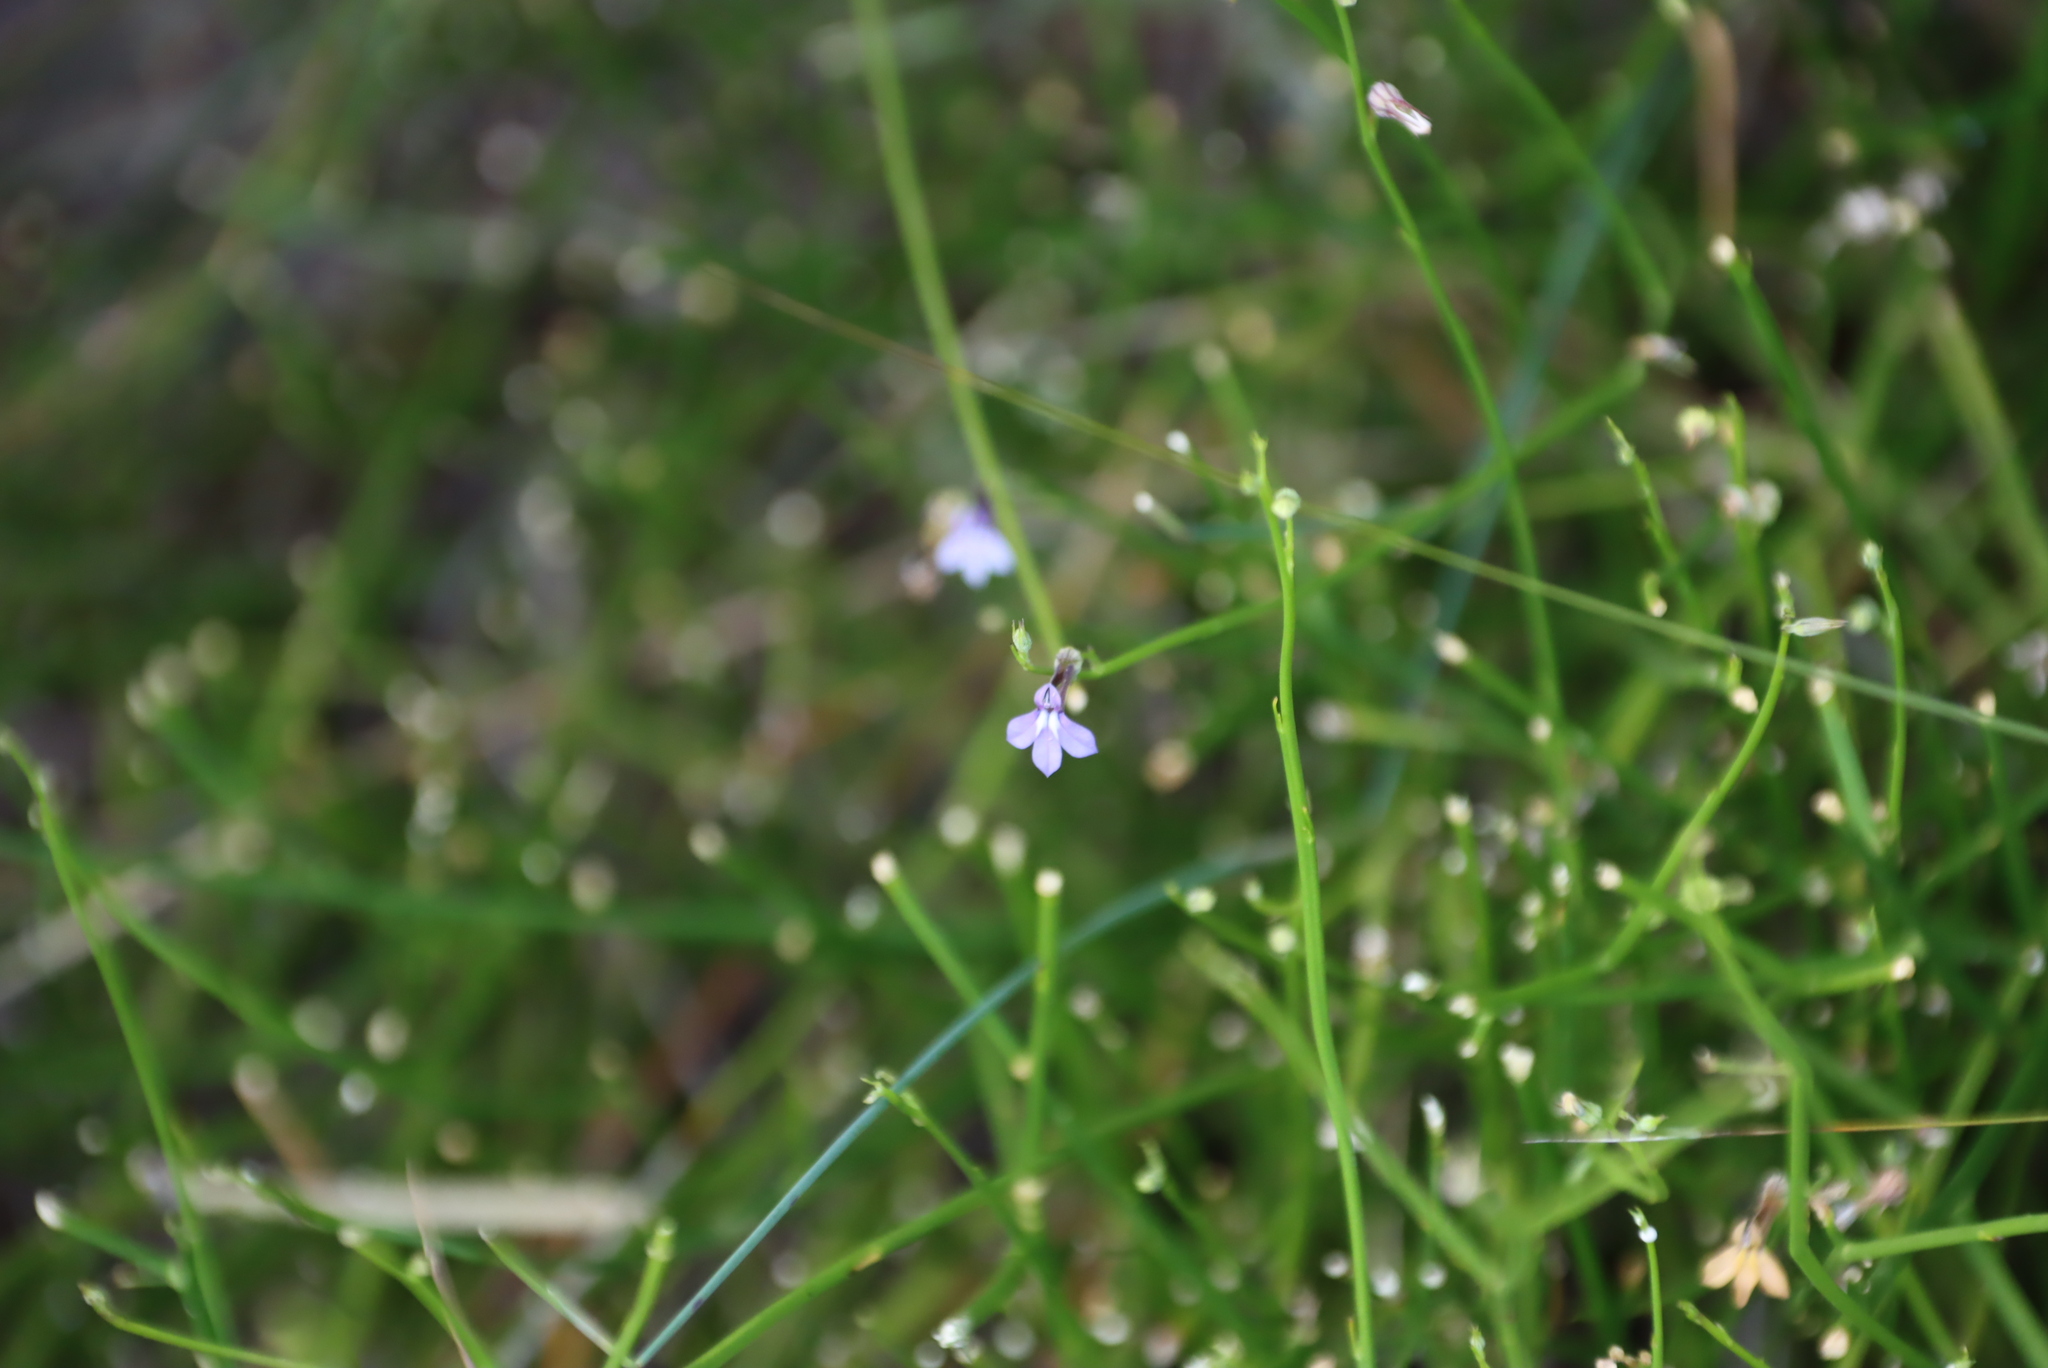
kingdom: Plantae
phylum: Tracheophyta
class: Magnoliopsida
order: Asterales
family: Campanulaceae
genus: Lobelia
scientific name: Lobelia dasyphylla
